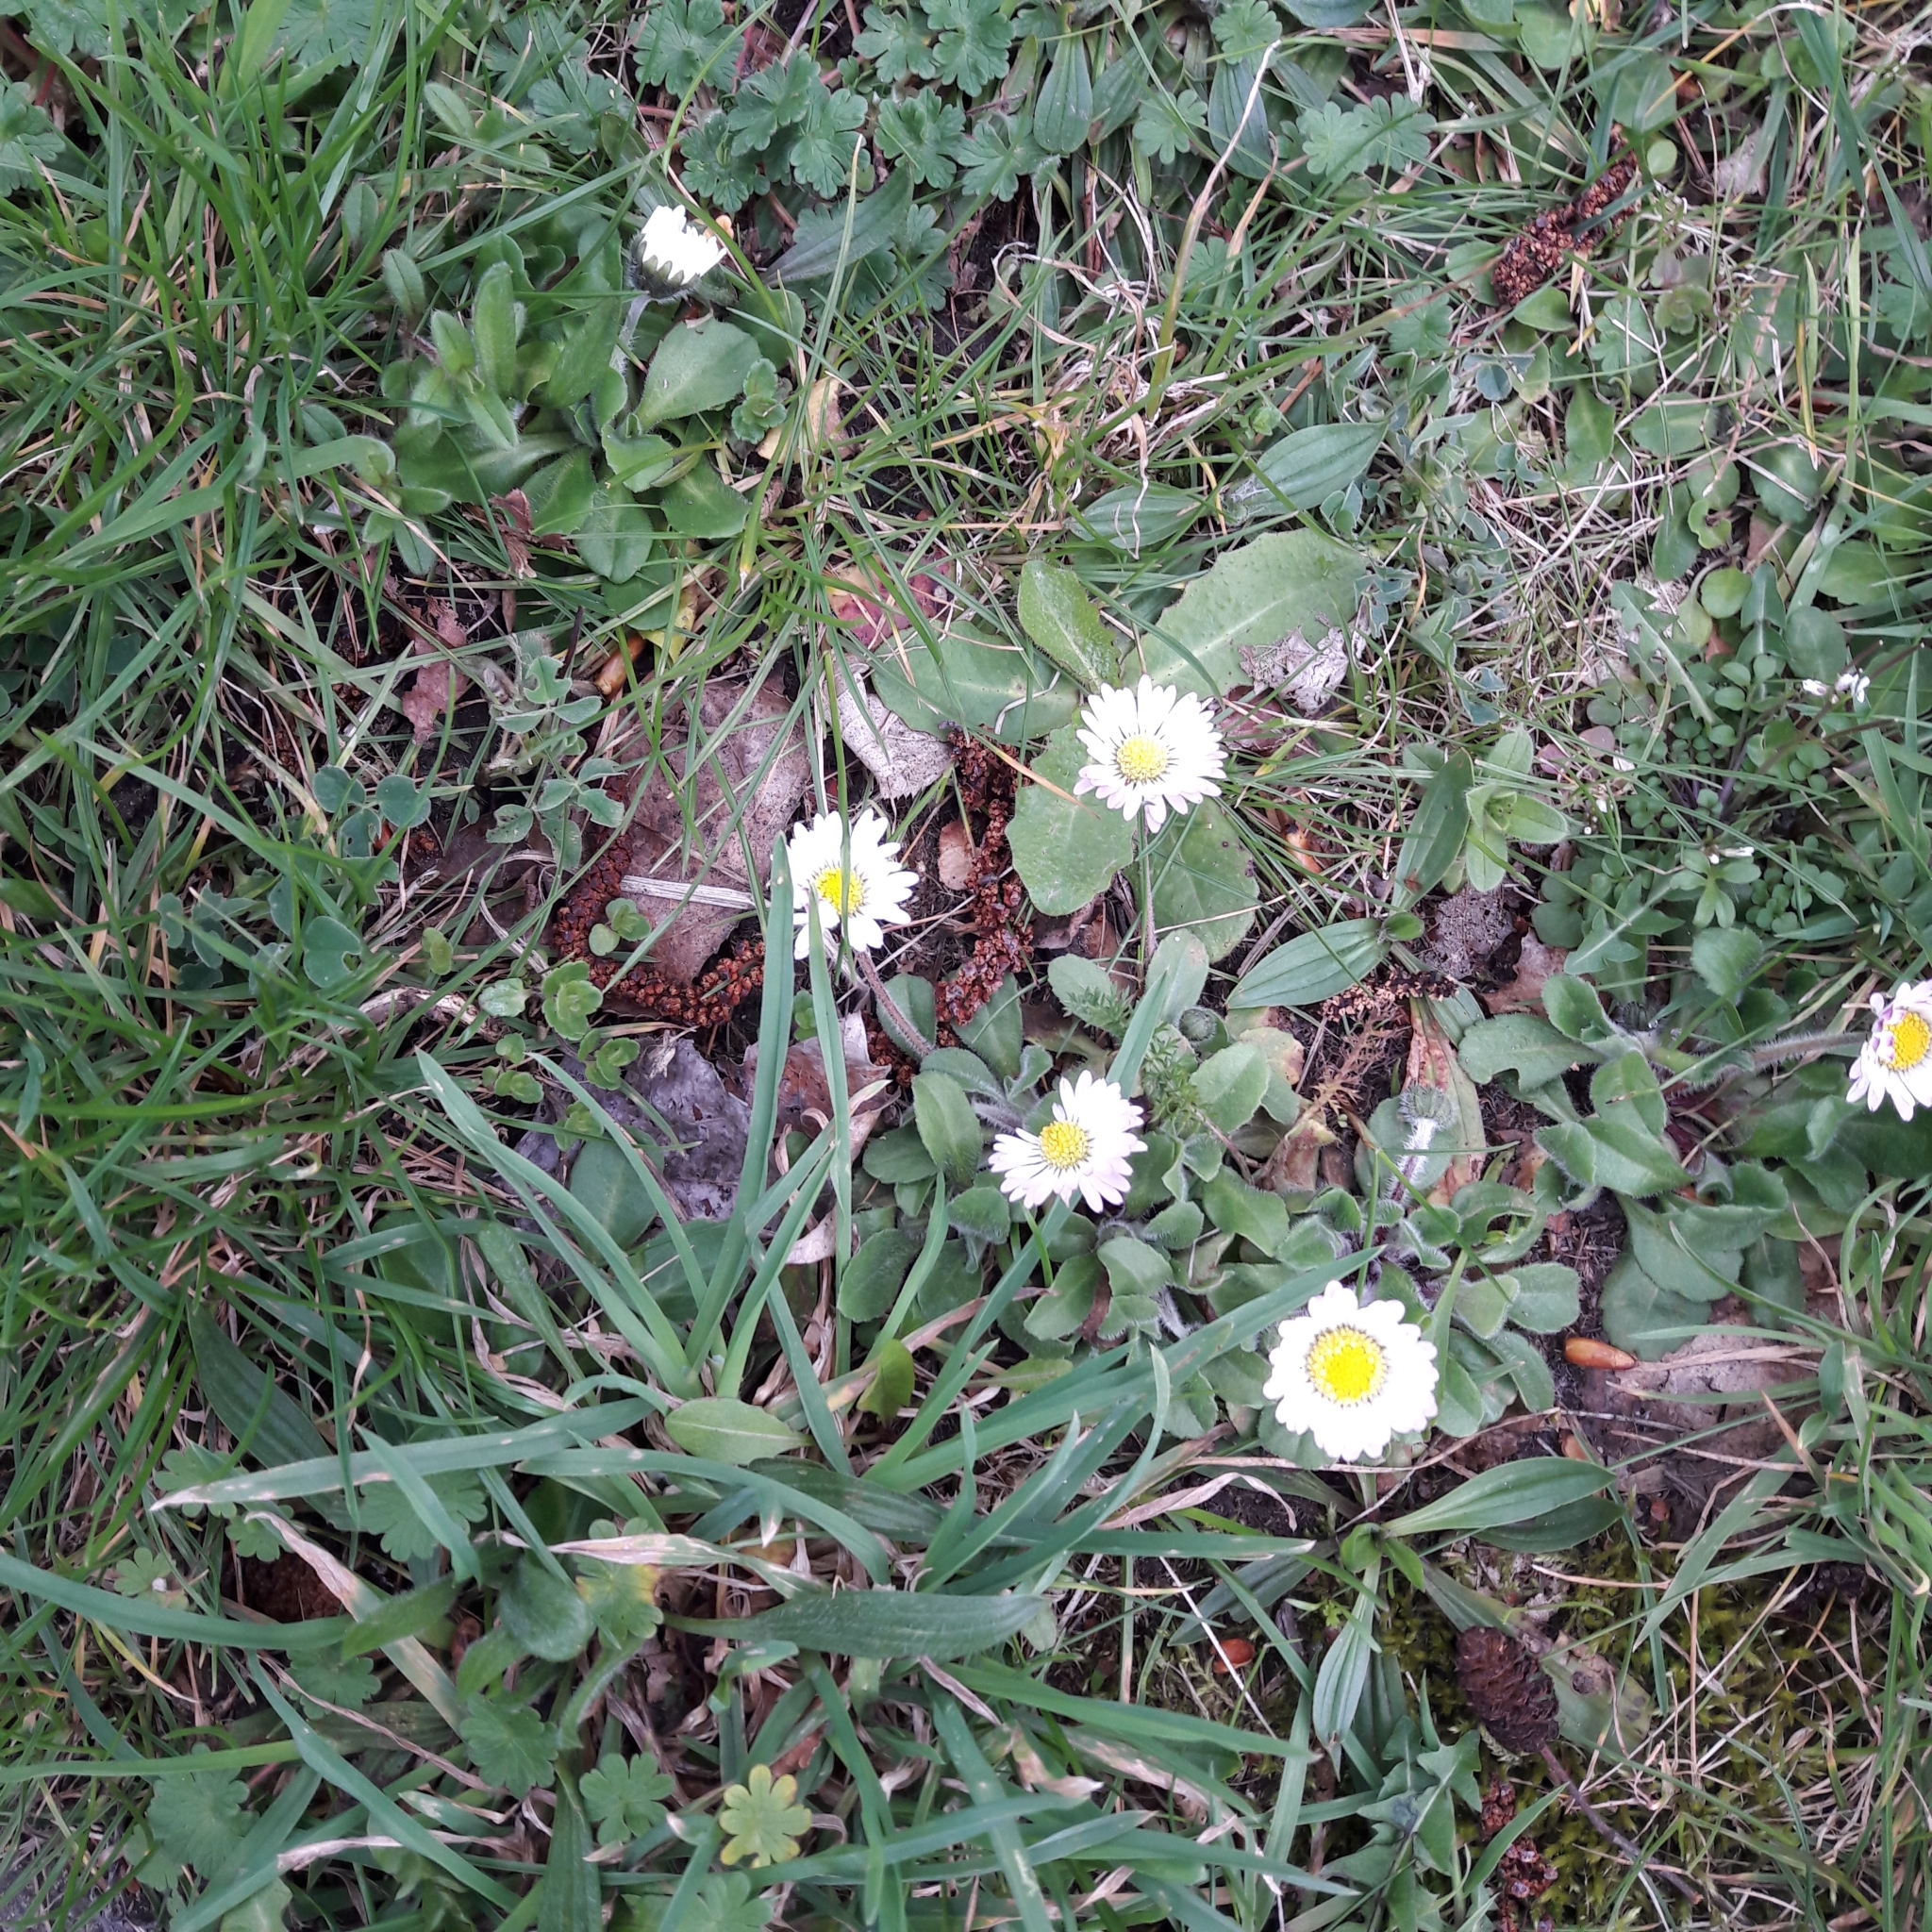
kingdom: Plantae
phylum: Tracheophyta
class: Magnoliopsida
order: Asterales
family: Asteraceae
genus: Bellis
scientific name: Bellis perennis
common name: Lawndaisy
